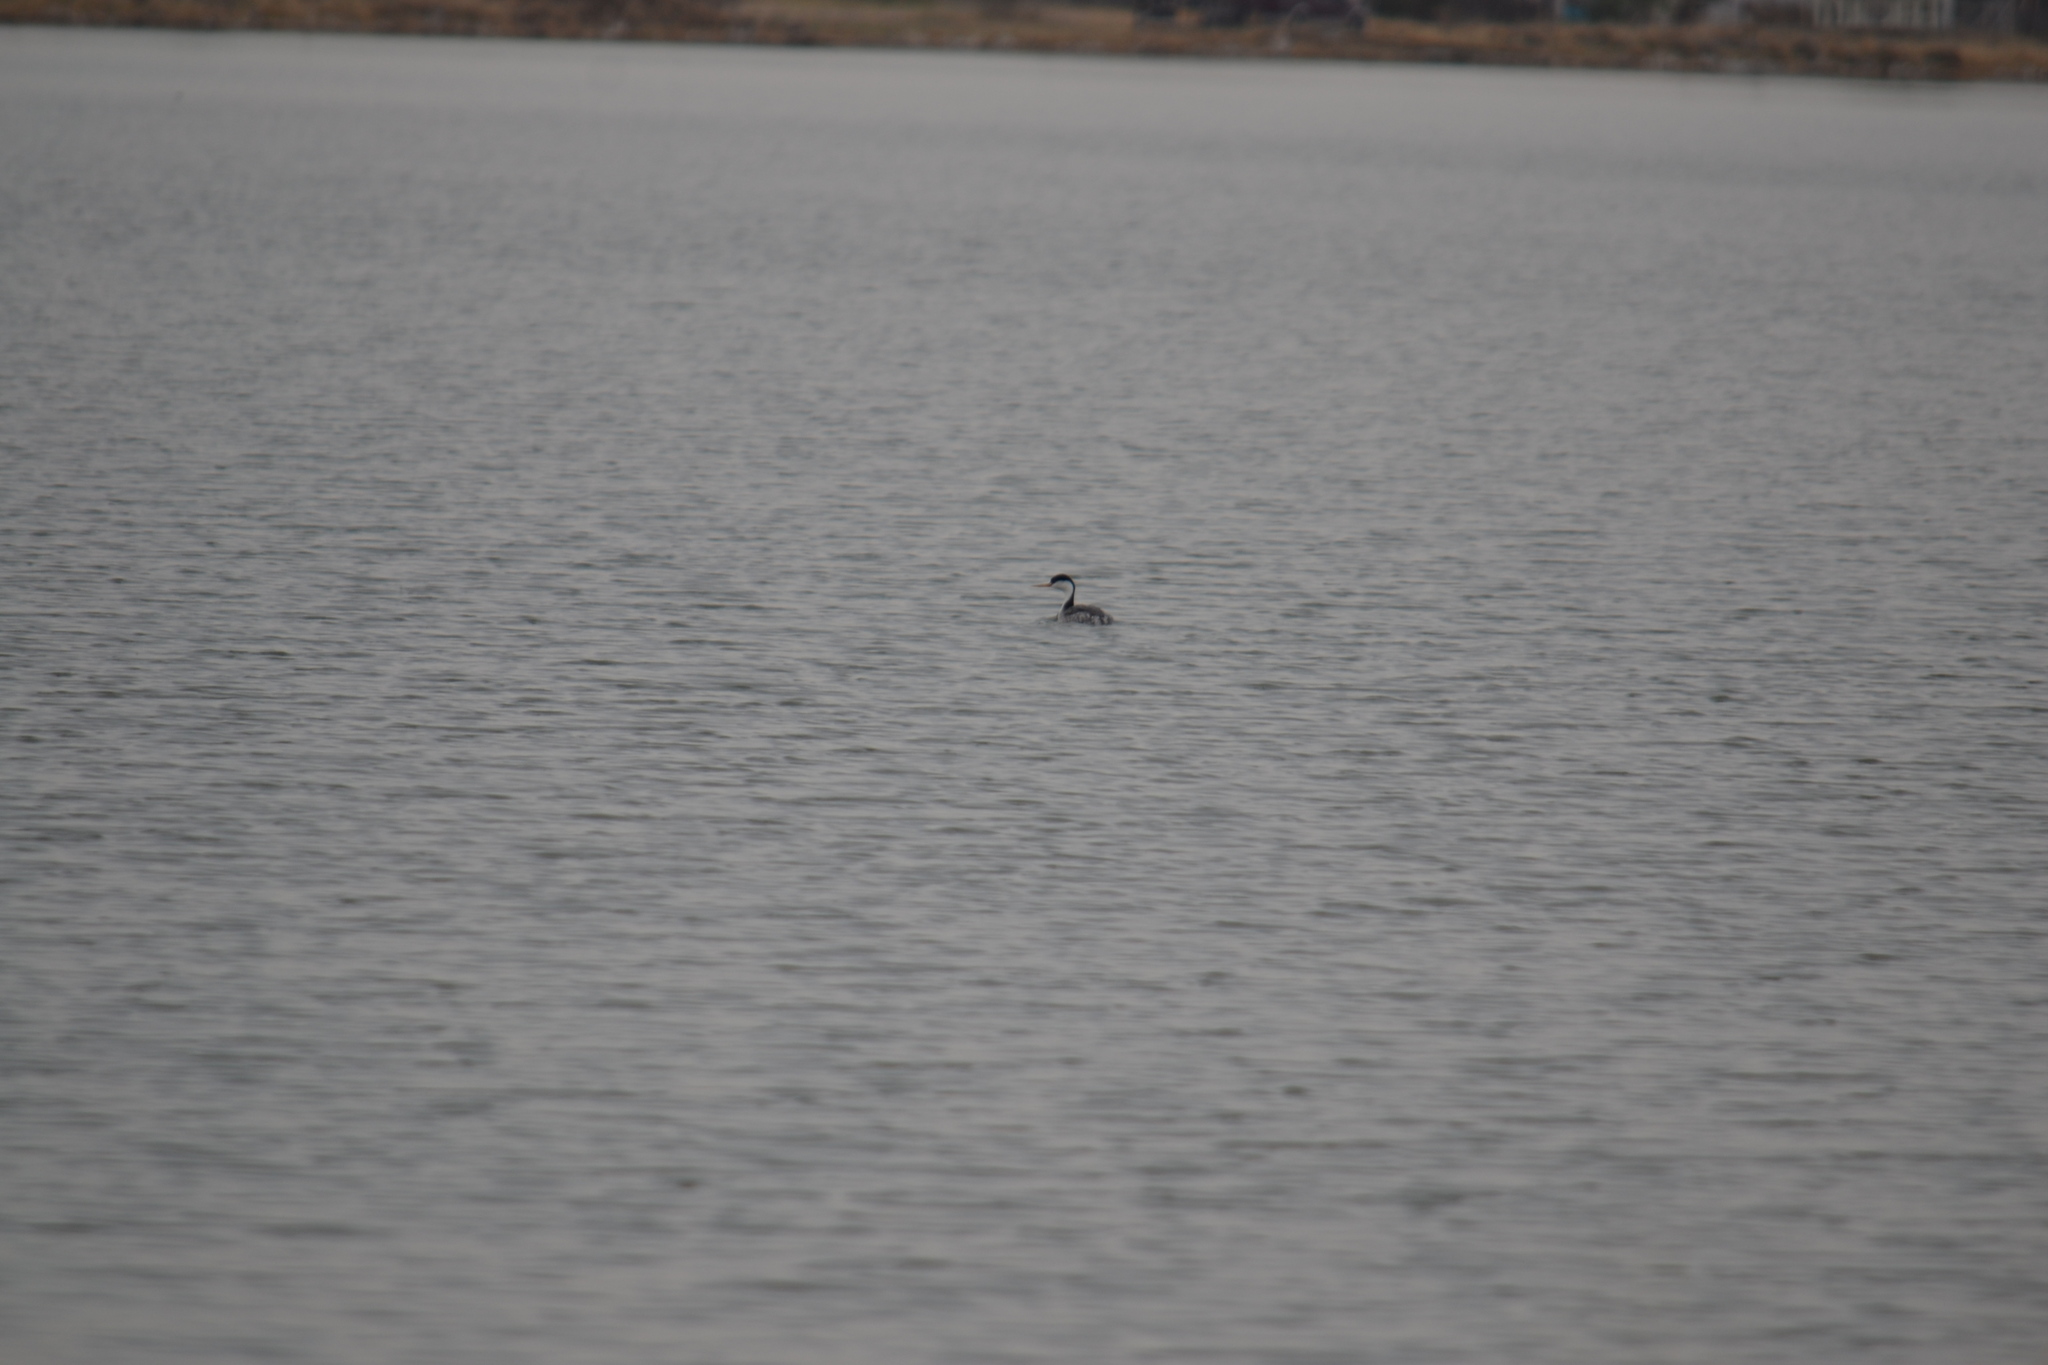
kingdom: Animalia
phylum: Chordata
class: Aves
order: Podicipediformes
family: Podicipedidae
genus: Aechmophorus
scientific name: Aechmophorus occidentalis
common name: Western grebe
